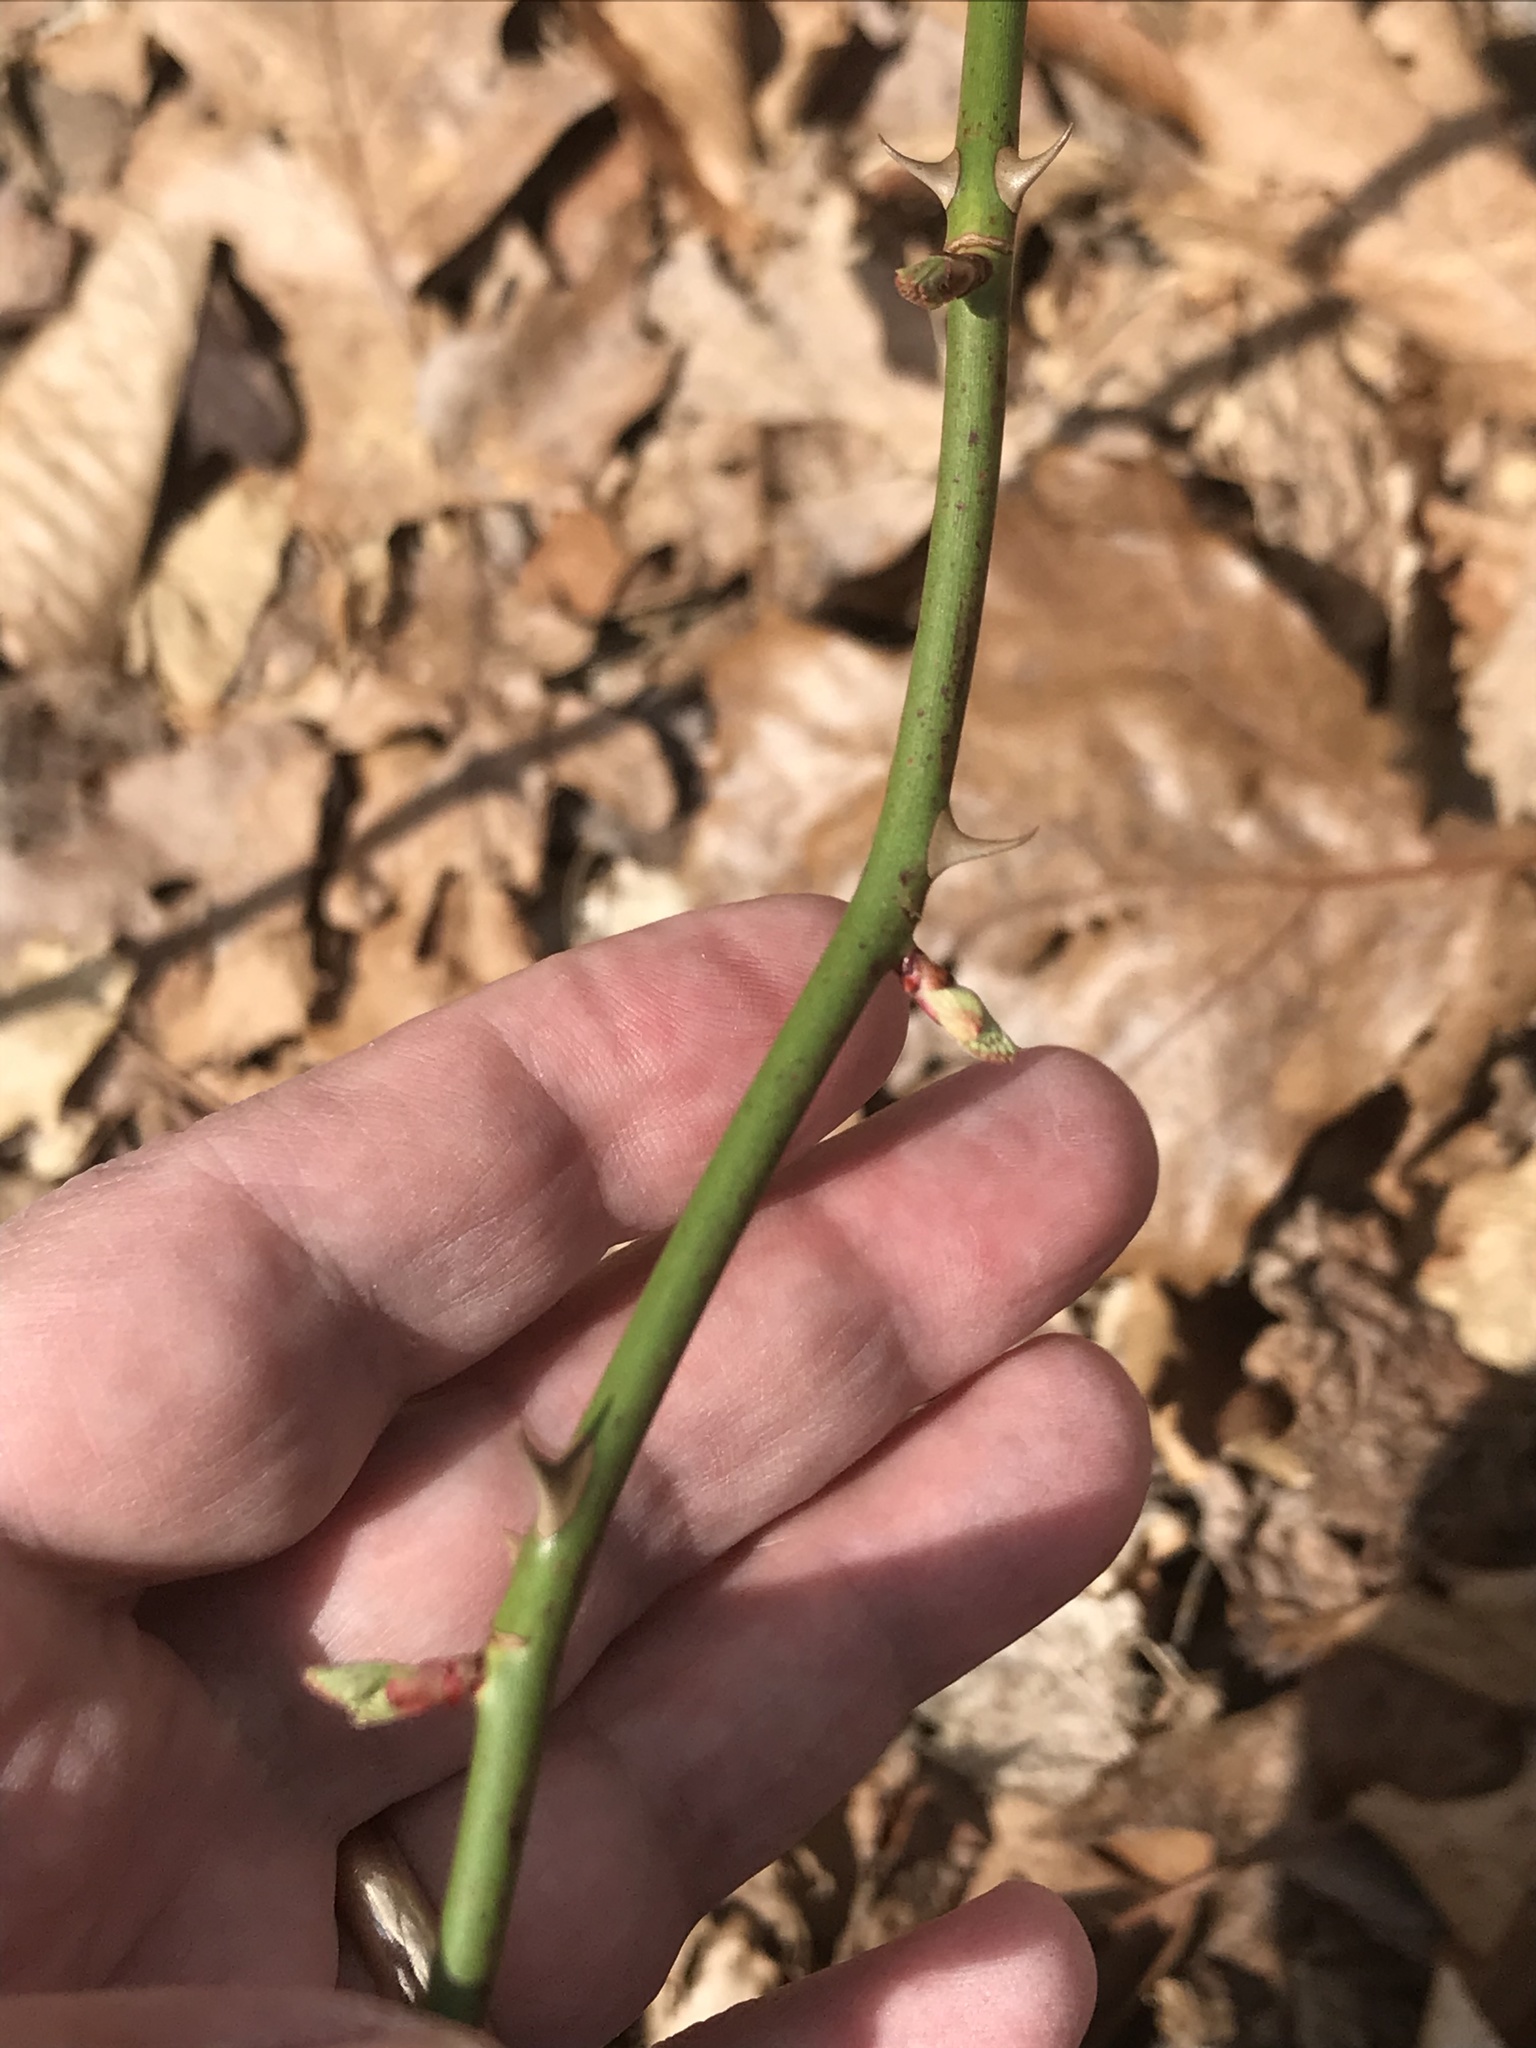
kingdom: Plantae
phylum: Tracheophyta
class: Magnoliopsida
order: Rosales
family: Rosaceae
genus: Rosa
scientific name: Rosa multiflora
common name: Multiflora rose
